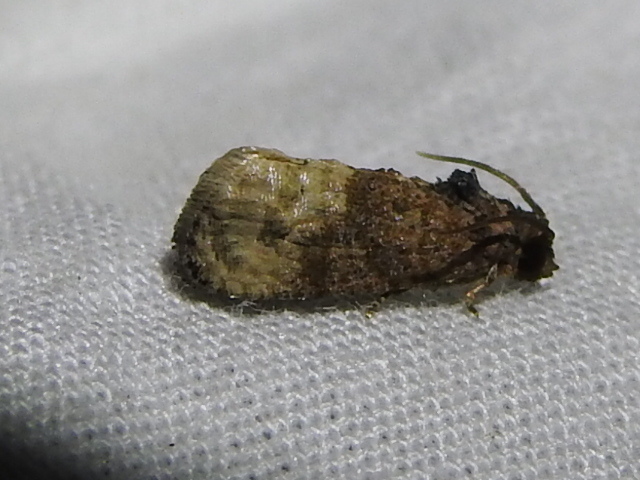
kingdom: Animalia
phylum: Arthropoda
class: Insecta
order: Lepidoptera
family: Tortricidae
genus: Ecdytolopha
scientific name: Ecdytolopha mana
